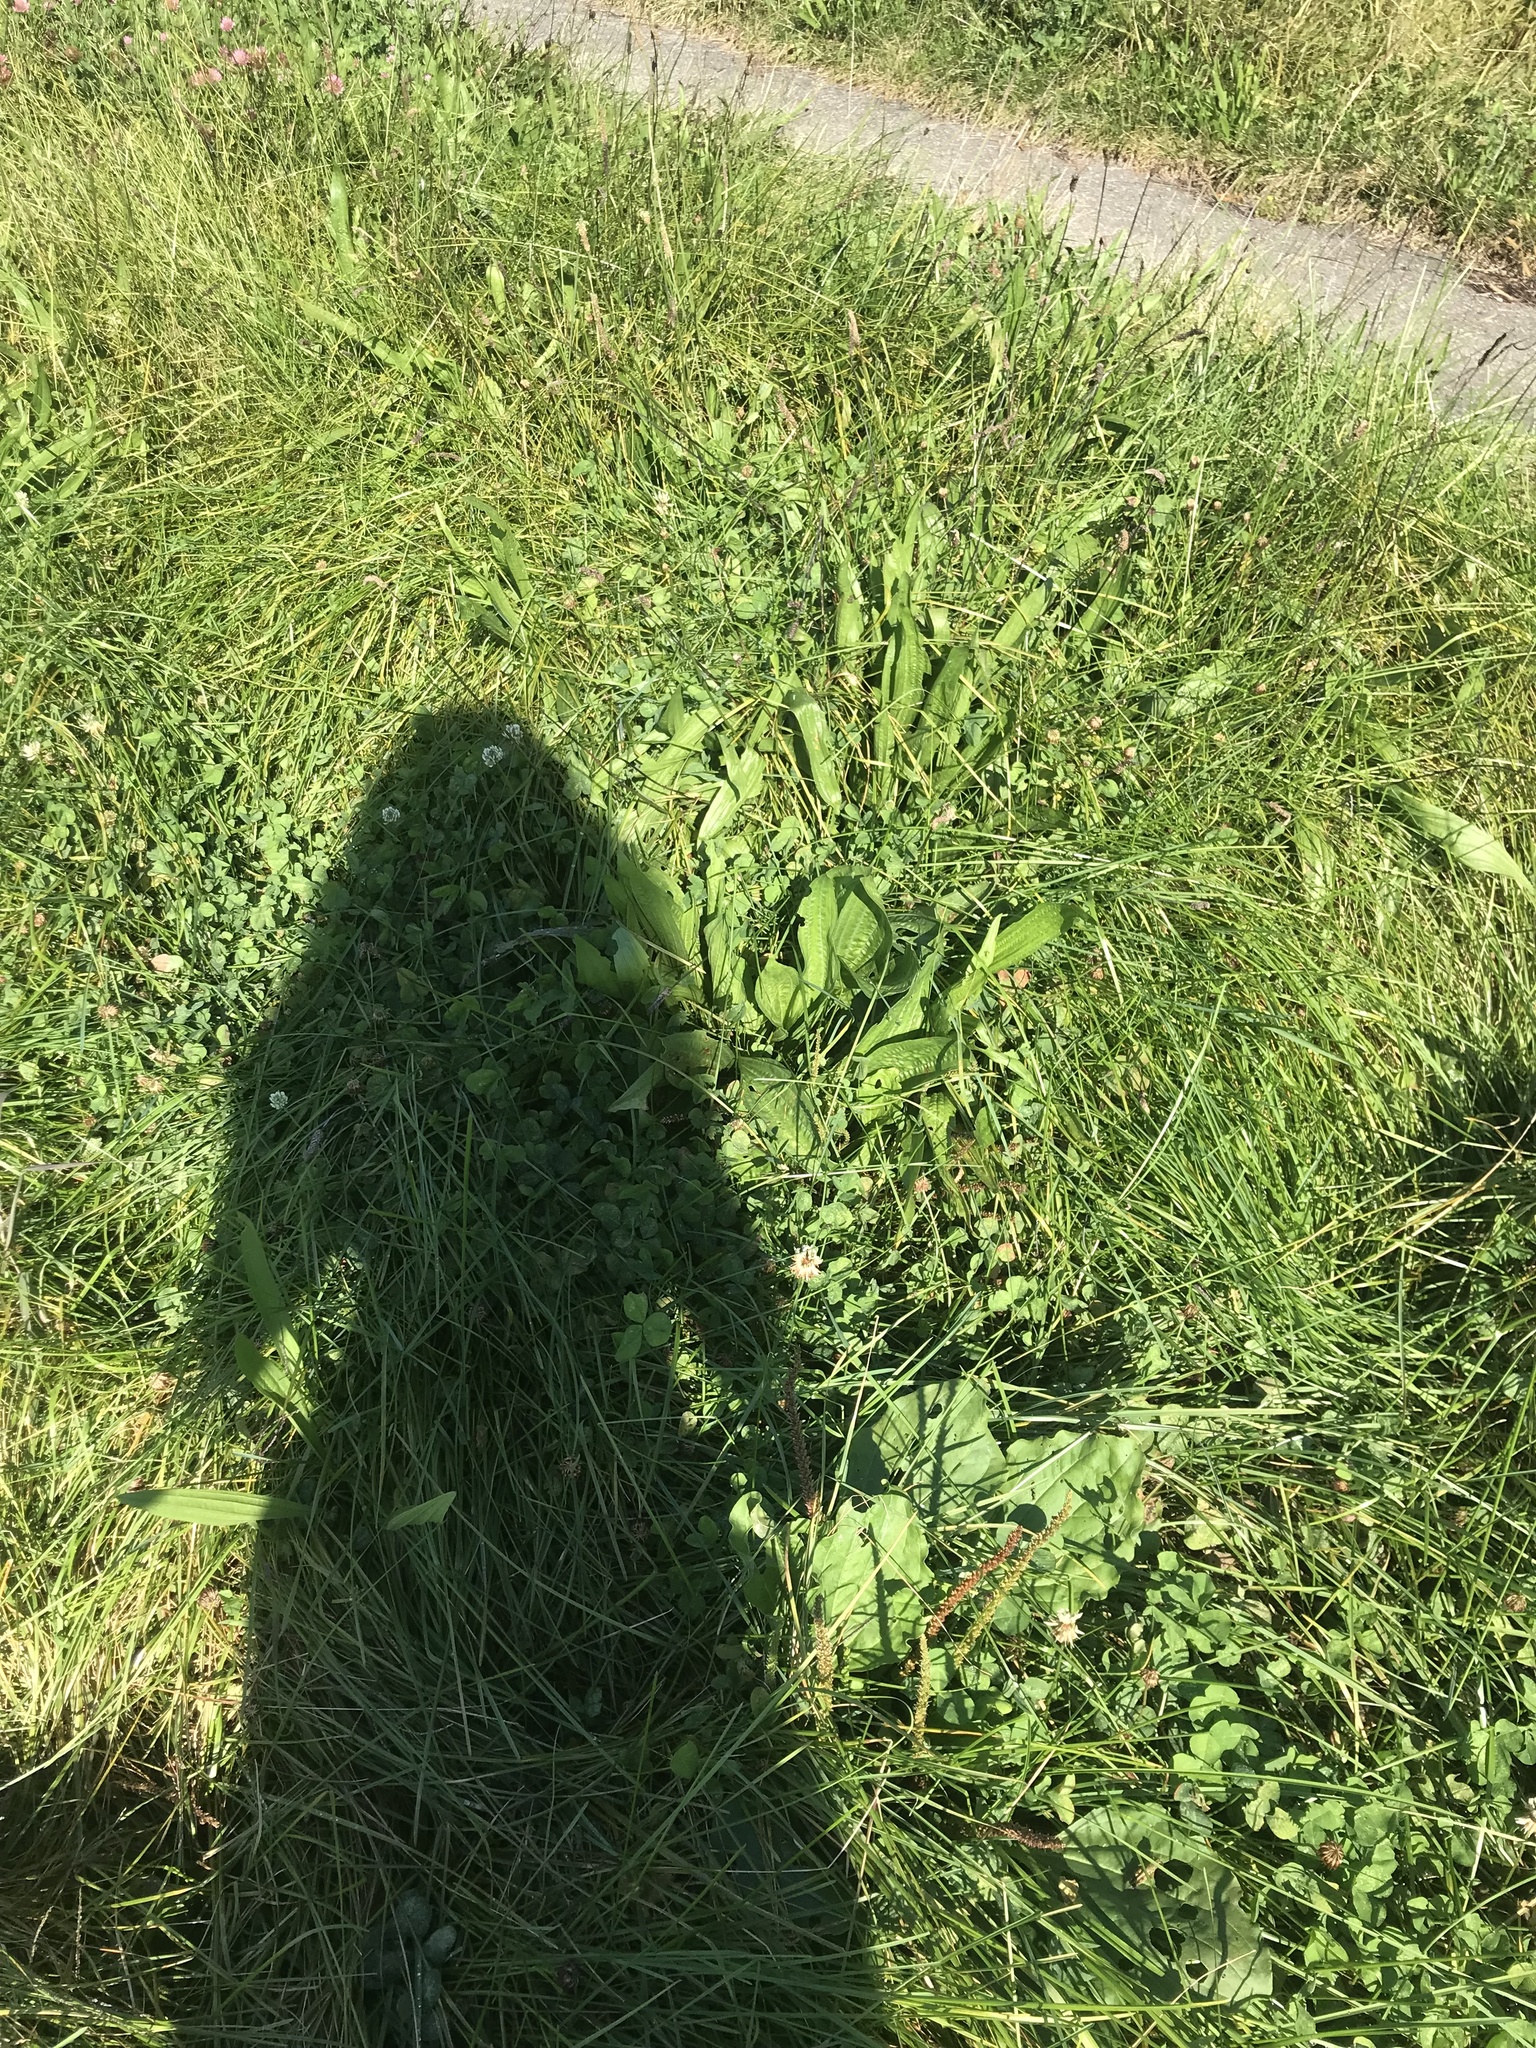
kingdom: Plantae
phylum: Tracheophyta
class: Magnoliopsida
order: Lamiales
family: Plantaginaceae
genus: Plantago
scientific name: Plantago lanceolata
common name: Ribwort plantain
